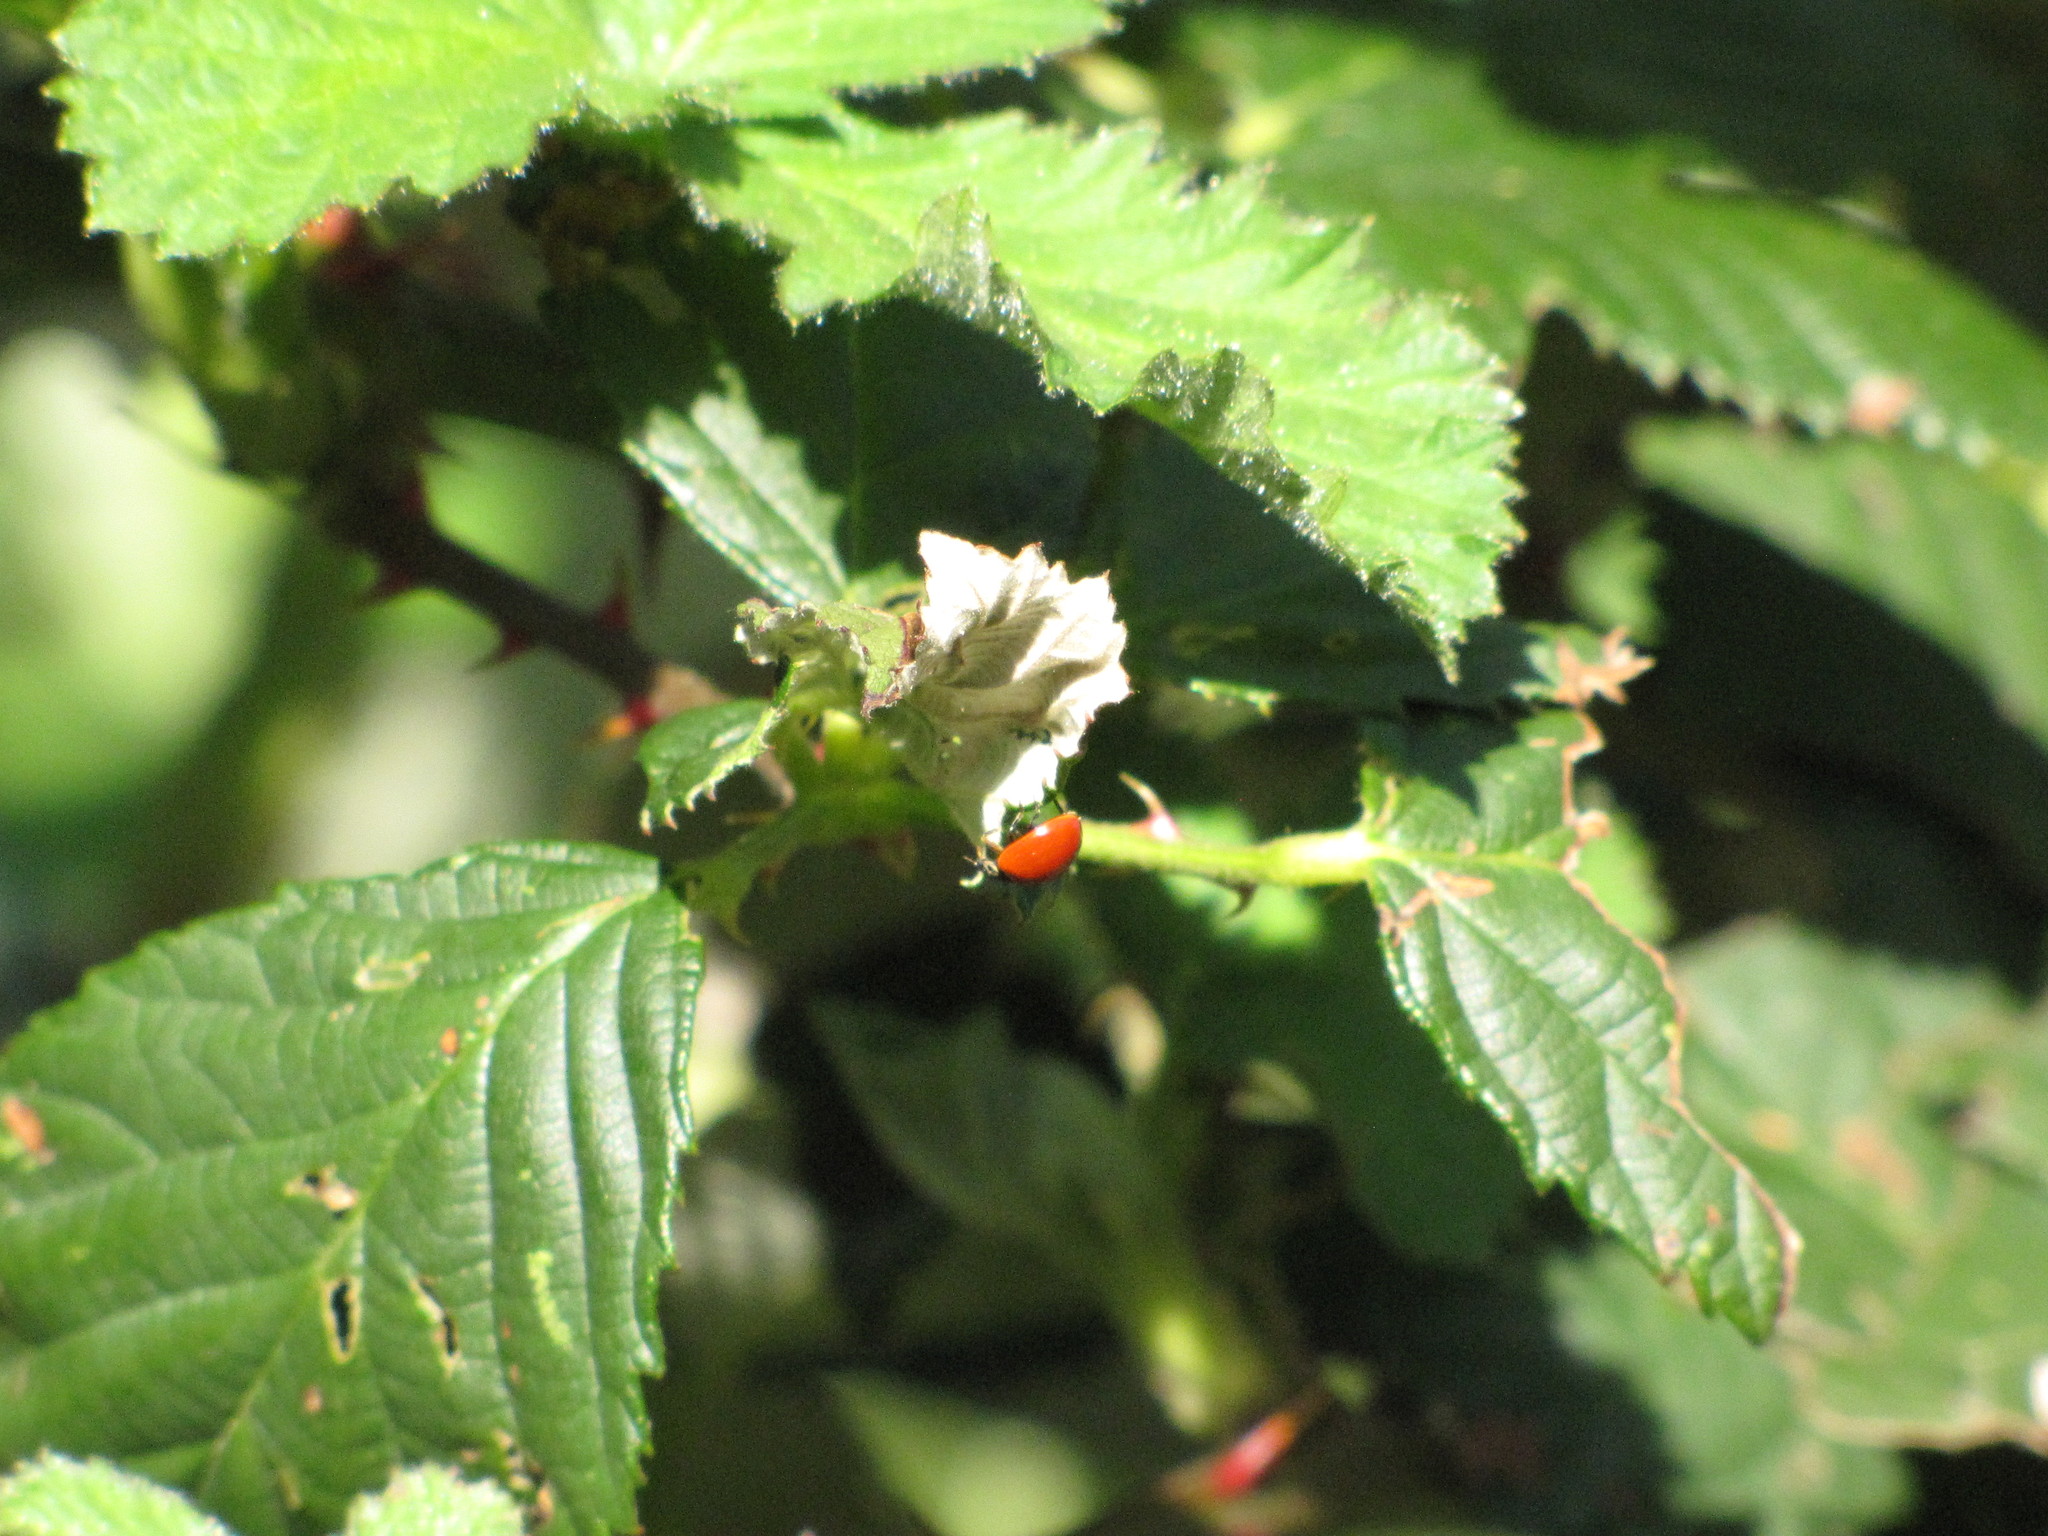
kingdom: Animalia
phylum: Arthropoda
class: Insecta
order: Coleoptera
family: Coccinellidae
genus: Cycloneda
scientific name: Cycloneda polita
